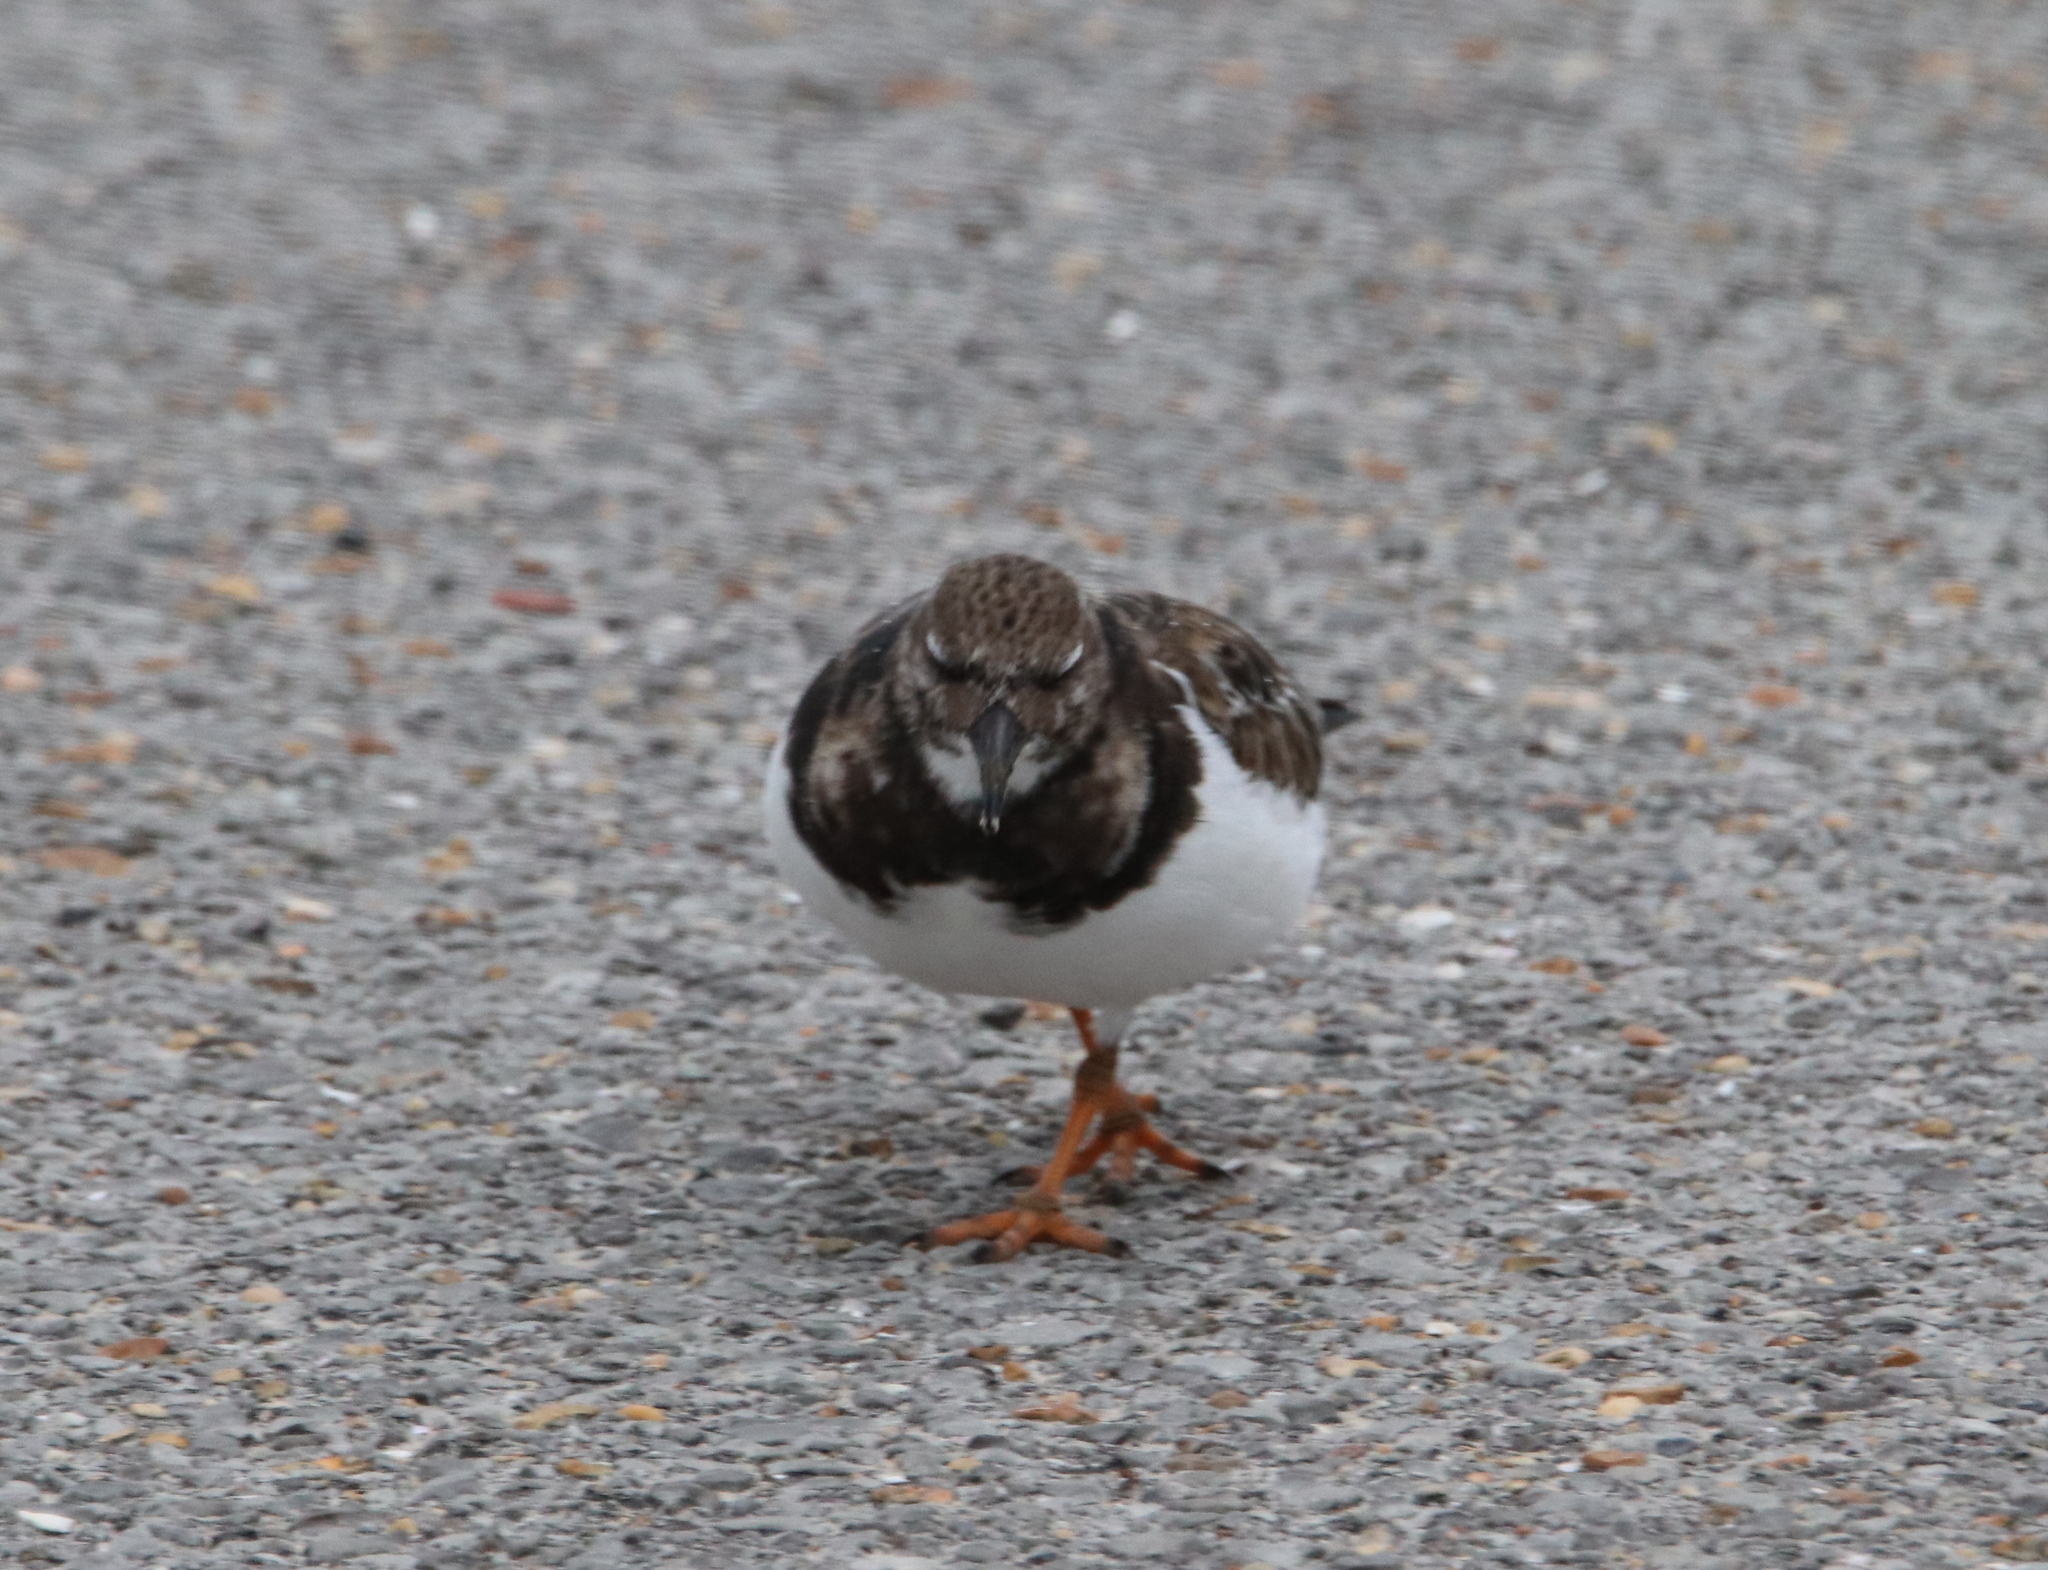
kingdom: Animalia
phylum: Chordata
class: Aves
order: Charadriiformes
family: Scolopacidae
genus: Arenaria
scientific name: Arenaria interpres
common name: Ruddy turnstone
